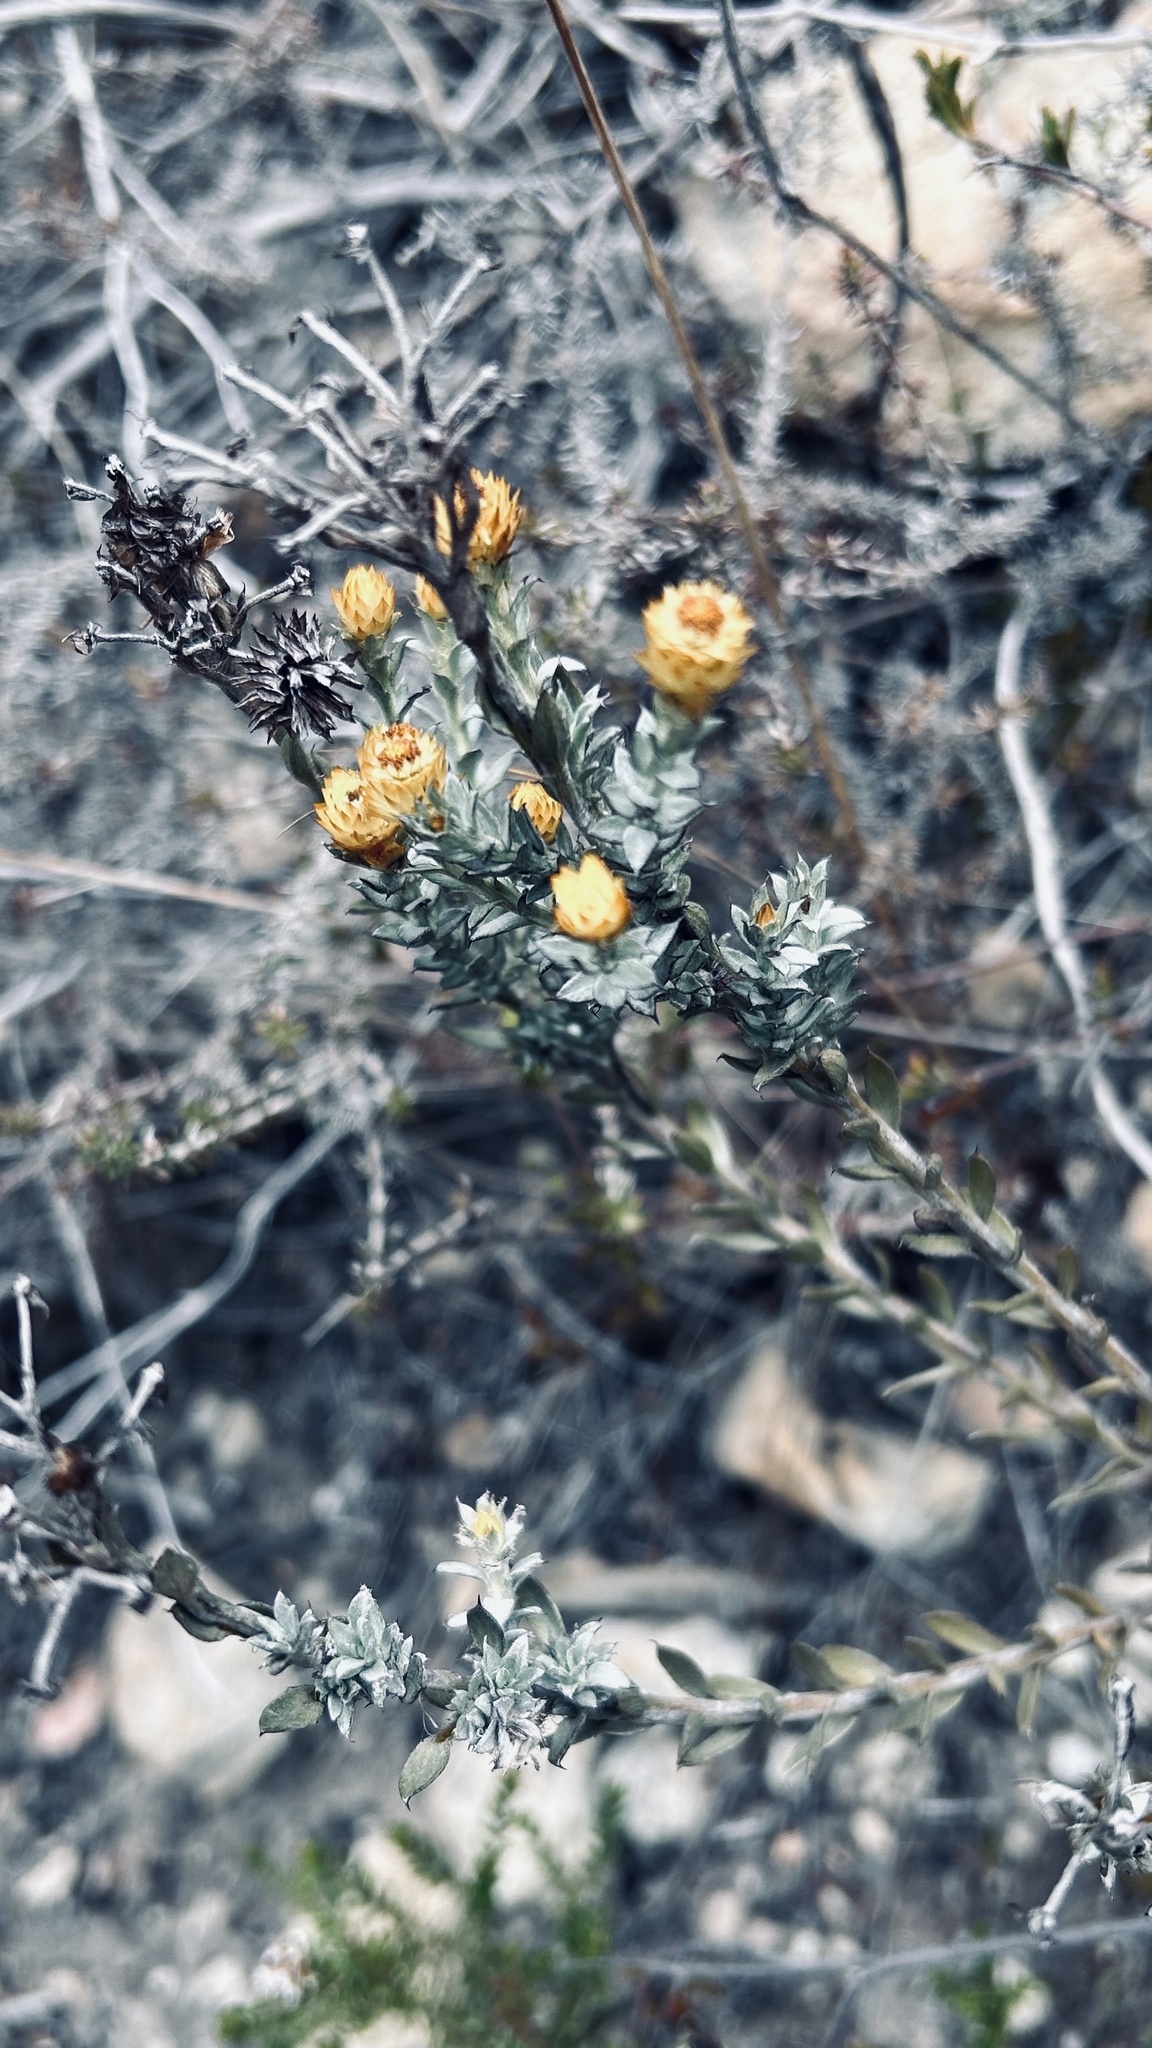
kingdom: Plantae
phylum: Tracheophyta
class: Magnoliopsida
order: Asterales
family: Asteraceae
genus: Achyranthemum
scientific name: Achyranthemum mucronatum
